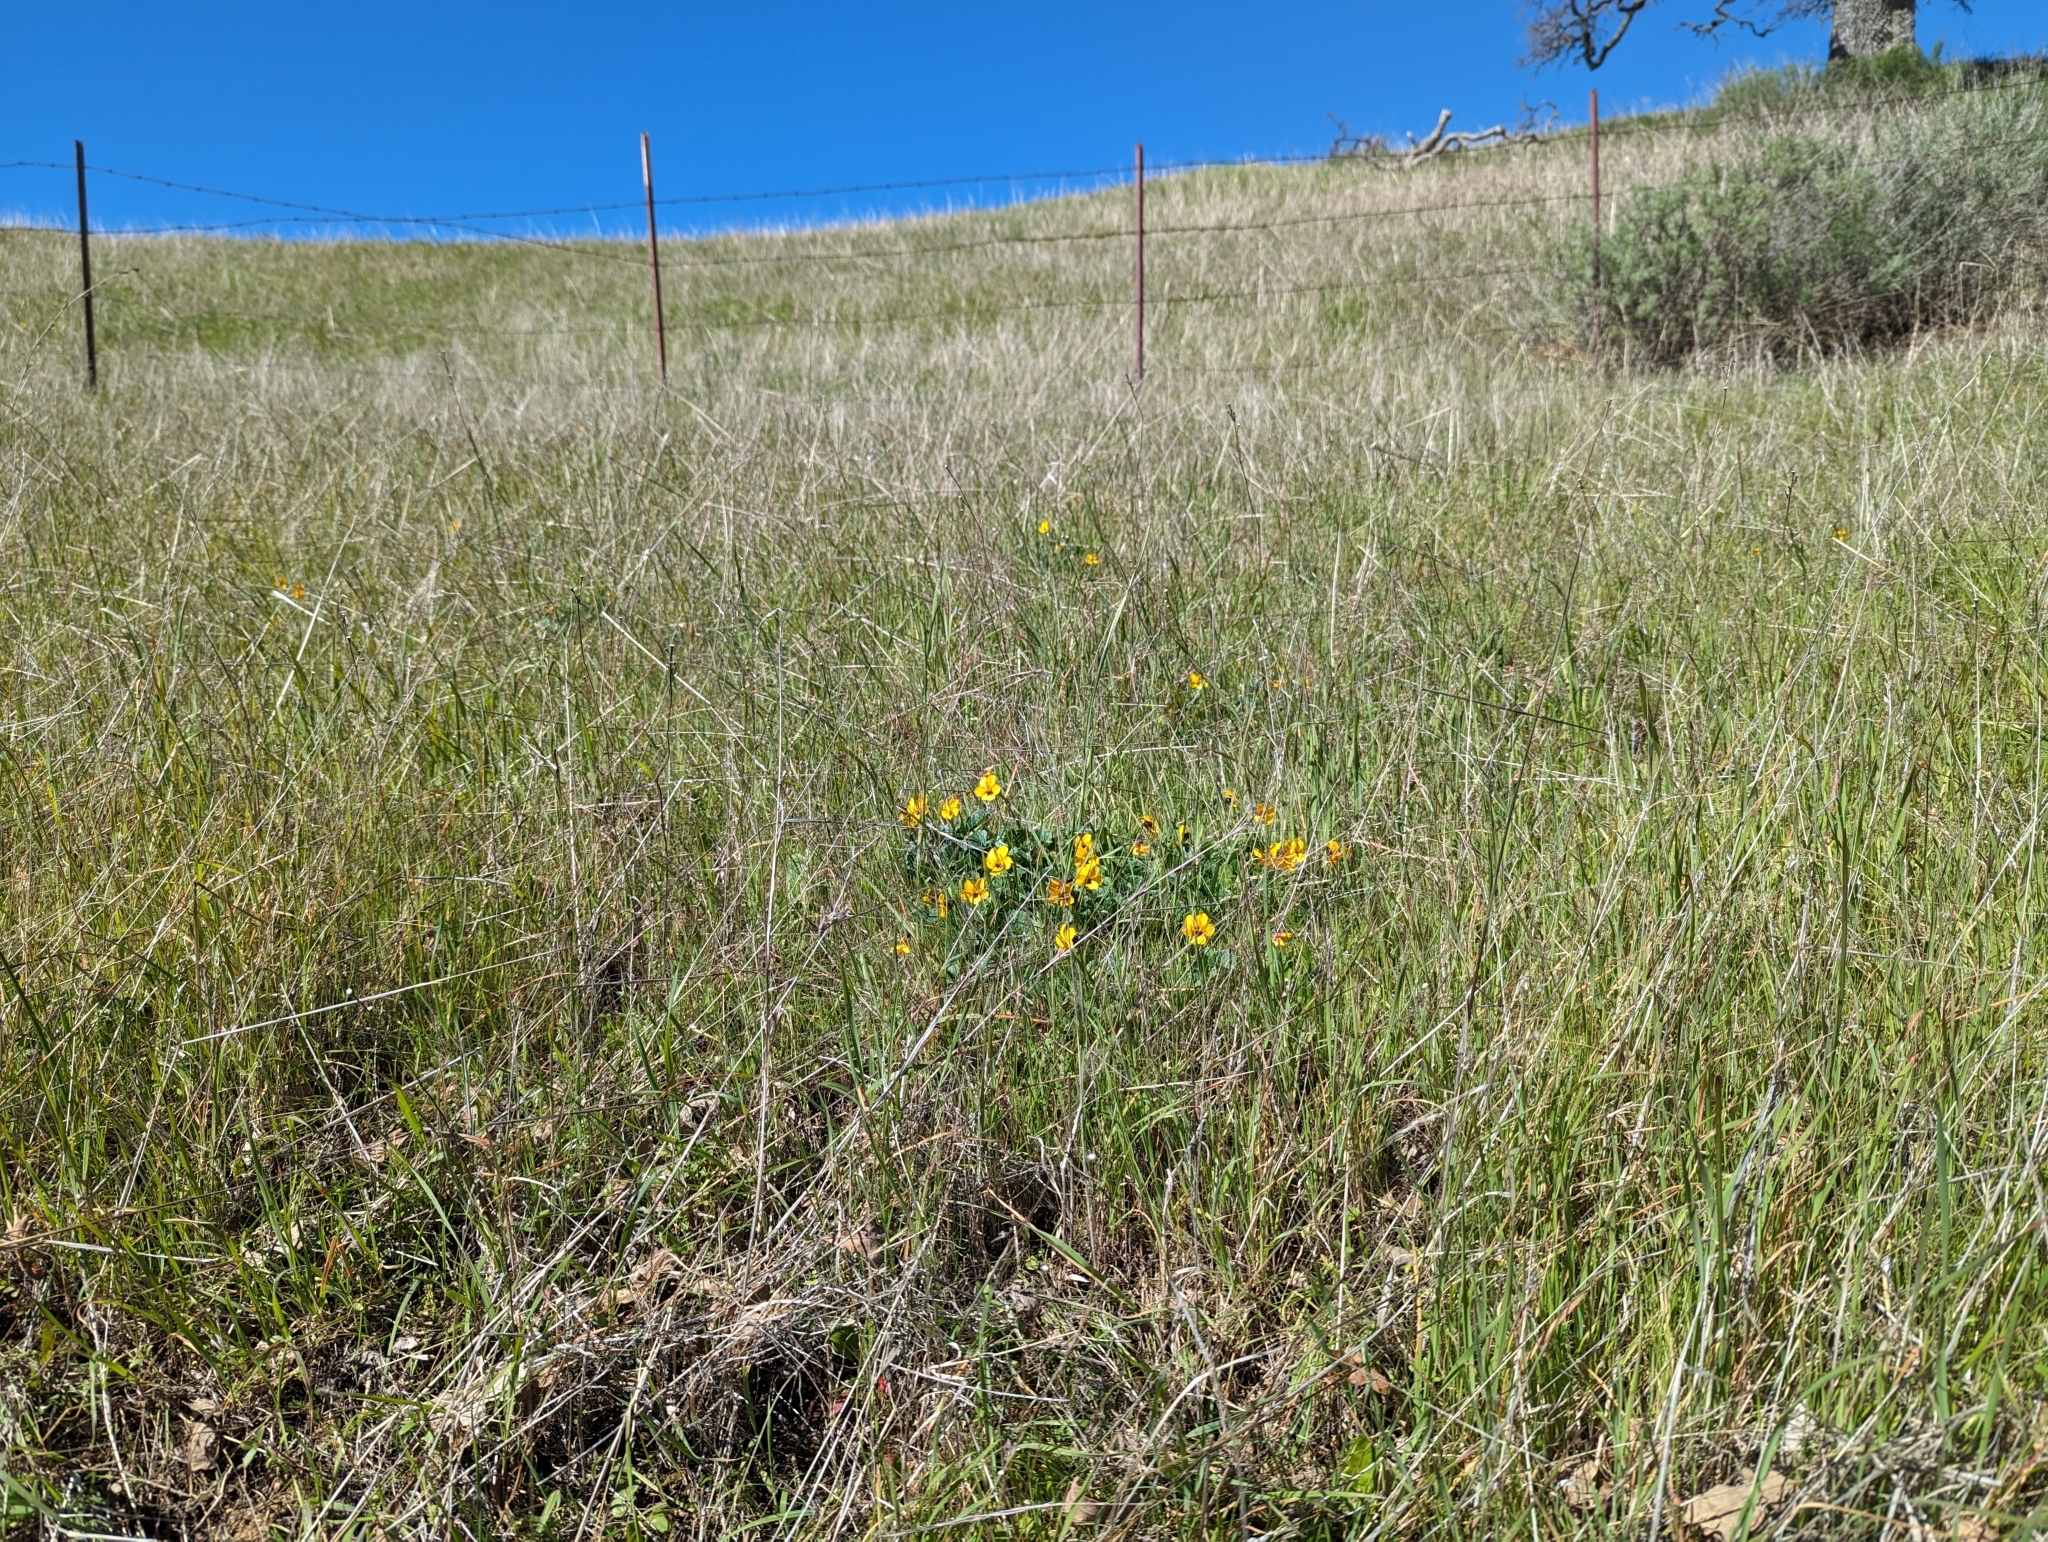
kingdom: Plantae
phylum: Tracheophyta
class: Magnoliopsida
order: Malpighiales
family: Violaceae
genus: Viola
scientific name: Viola pedunculata
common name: California golden violet
